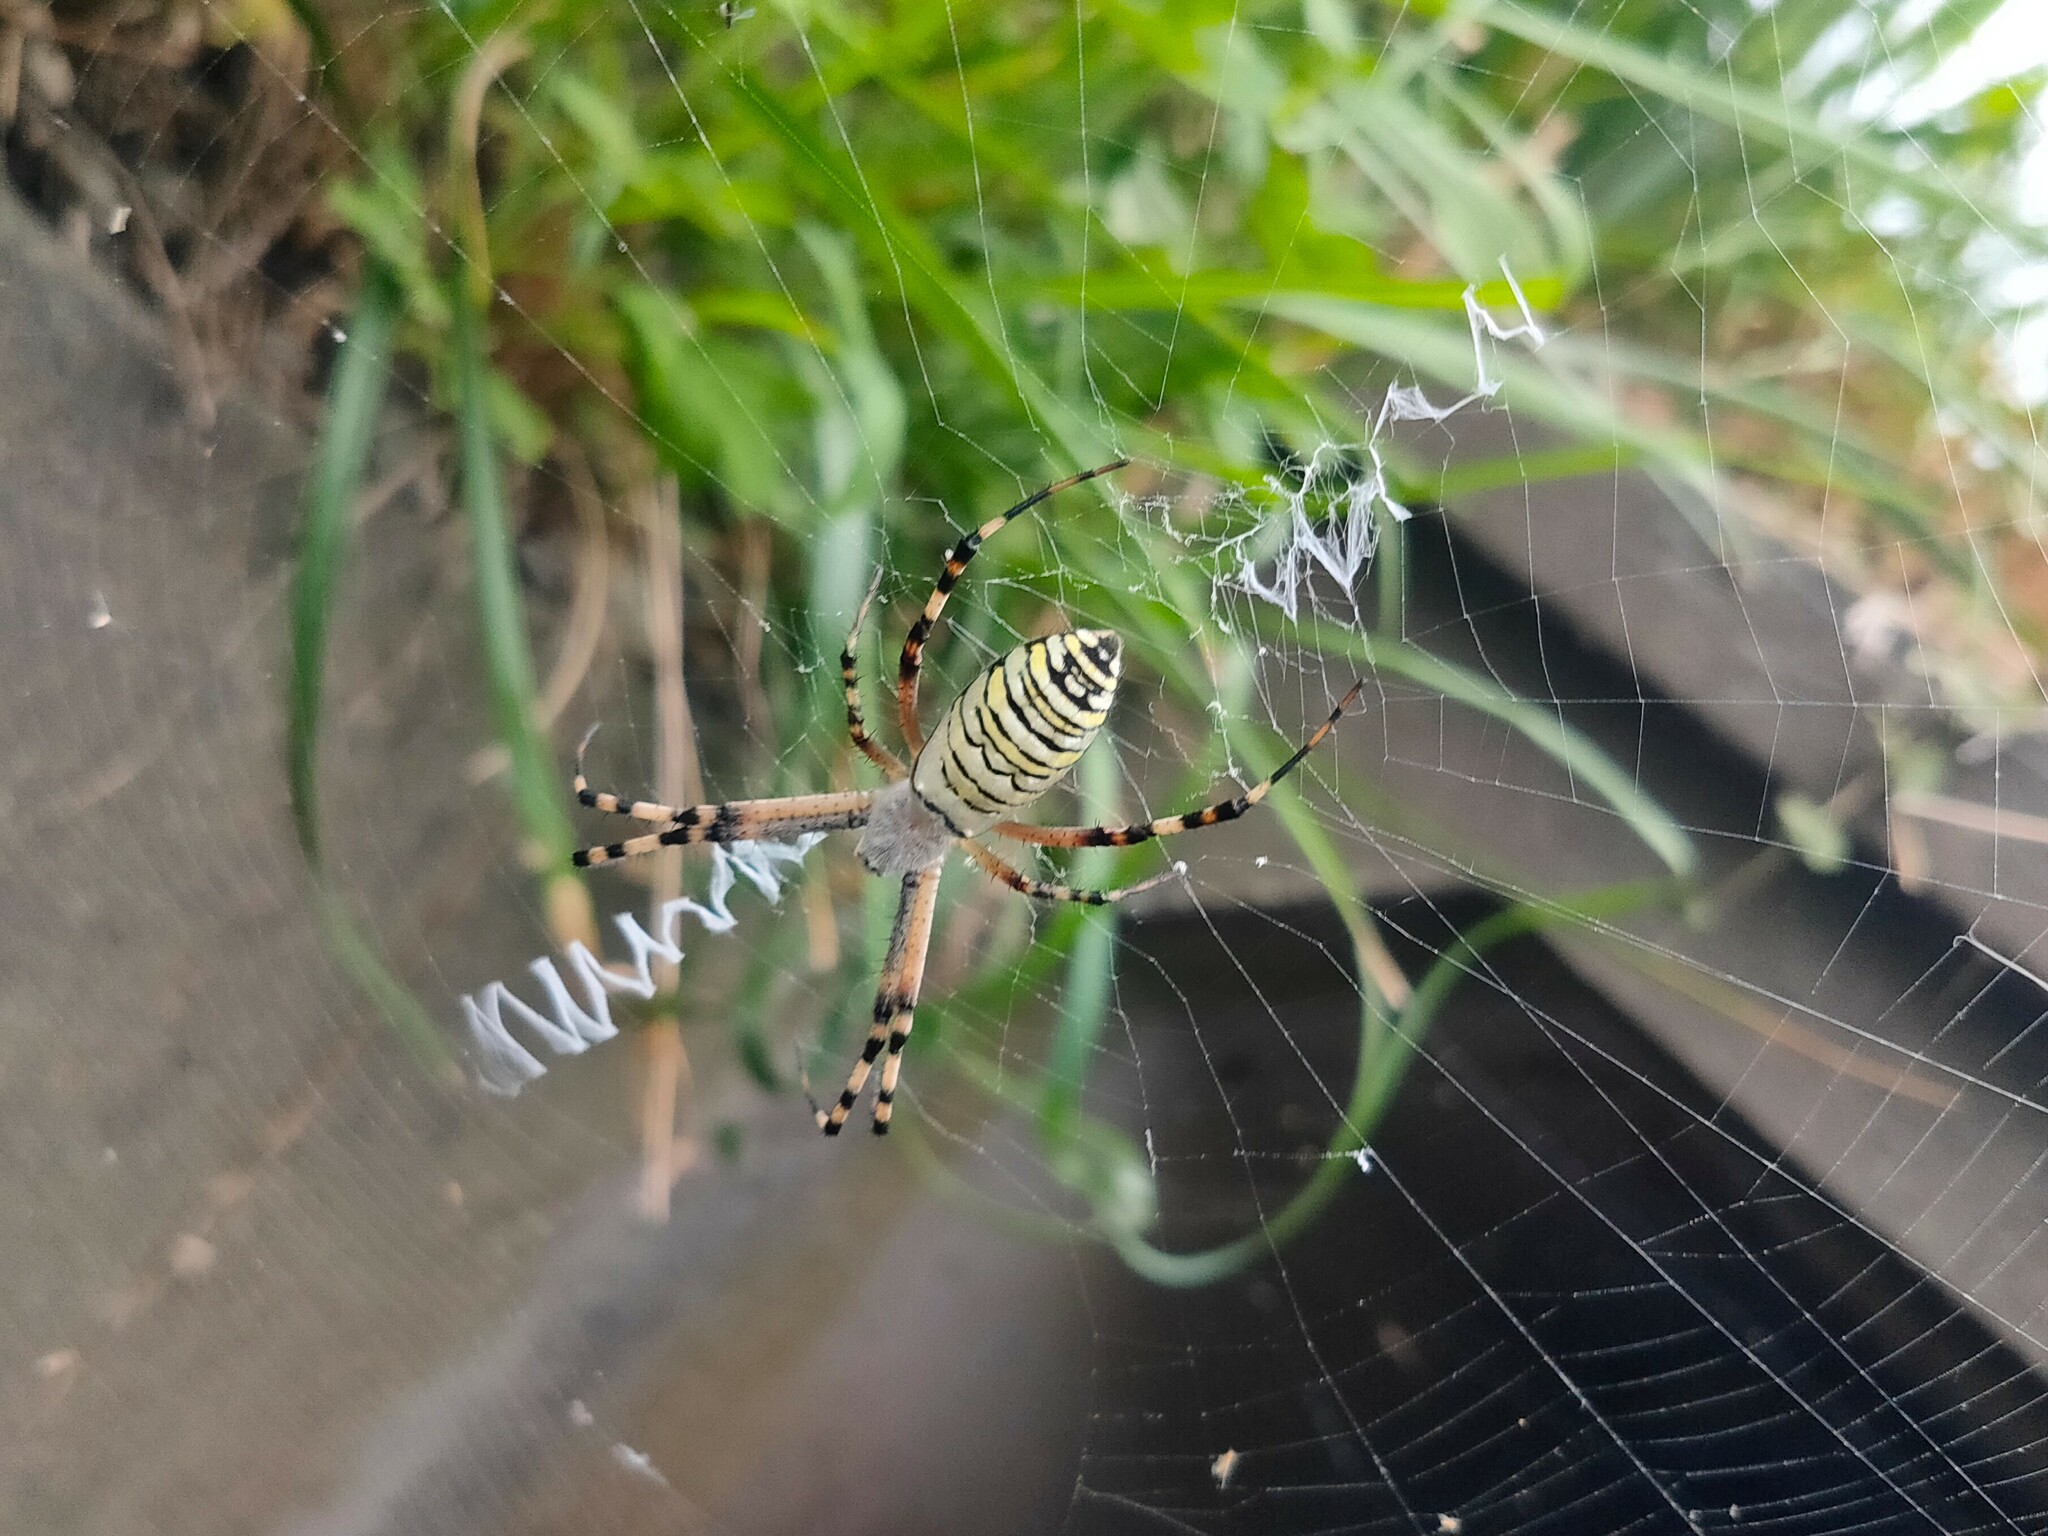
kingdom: Animalia
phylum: Arthropoda
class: Arachnida
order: Araneae
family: Araneidae
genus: Argiope
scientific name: Argiope bruennichi
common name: Wasp spider
